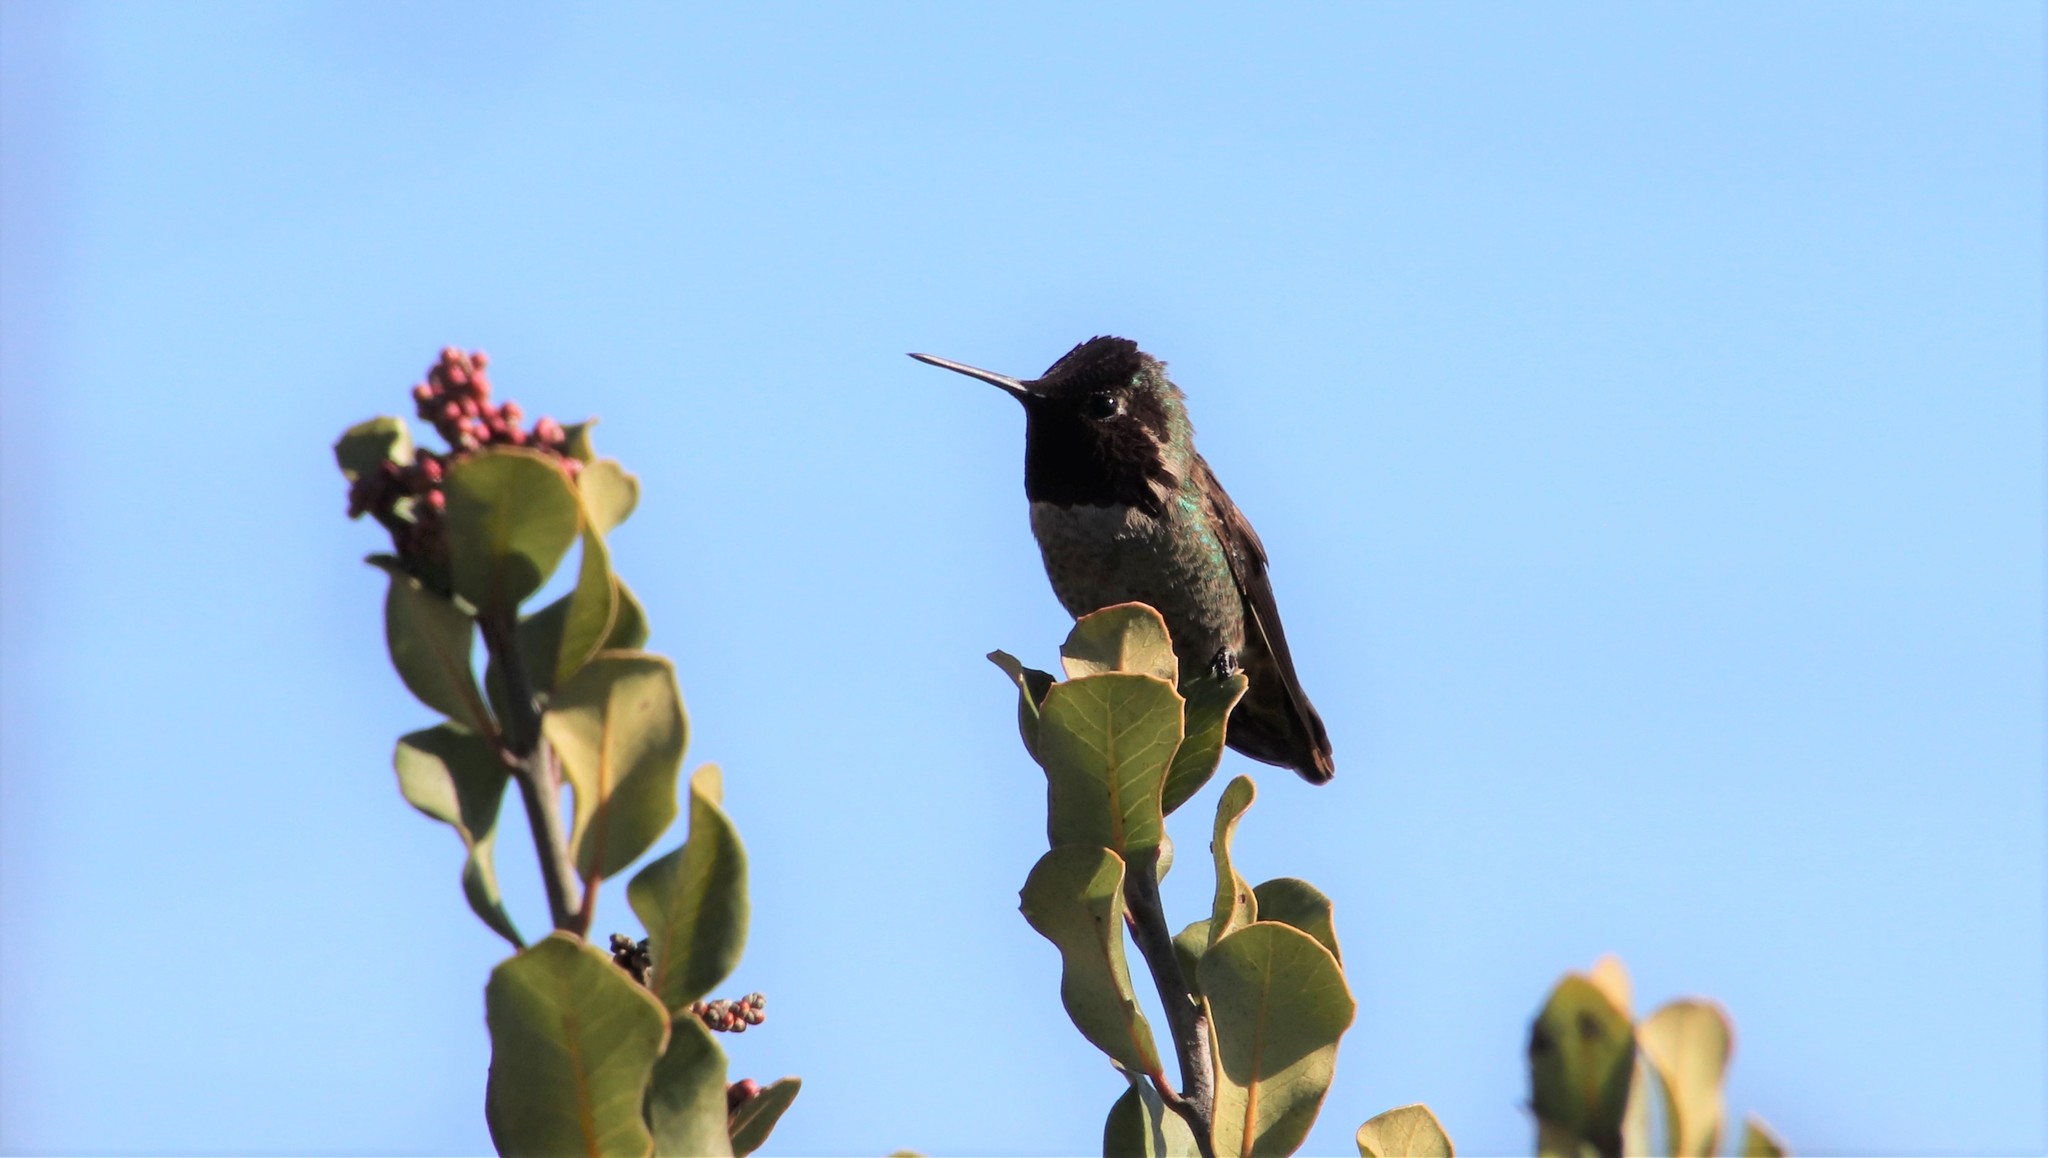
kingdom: Animalia
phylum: Chordata
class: Aves
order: Apodiformes
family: Trochilidae
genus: Calypte
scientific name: Calypte anna
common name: Anna's hummingbird
